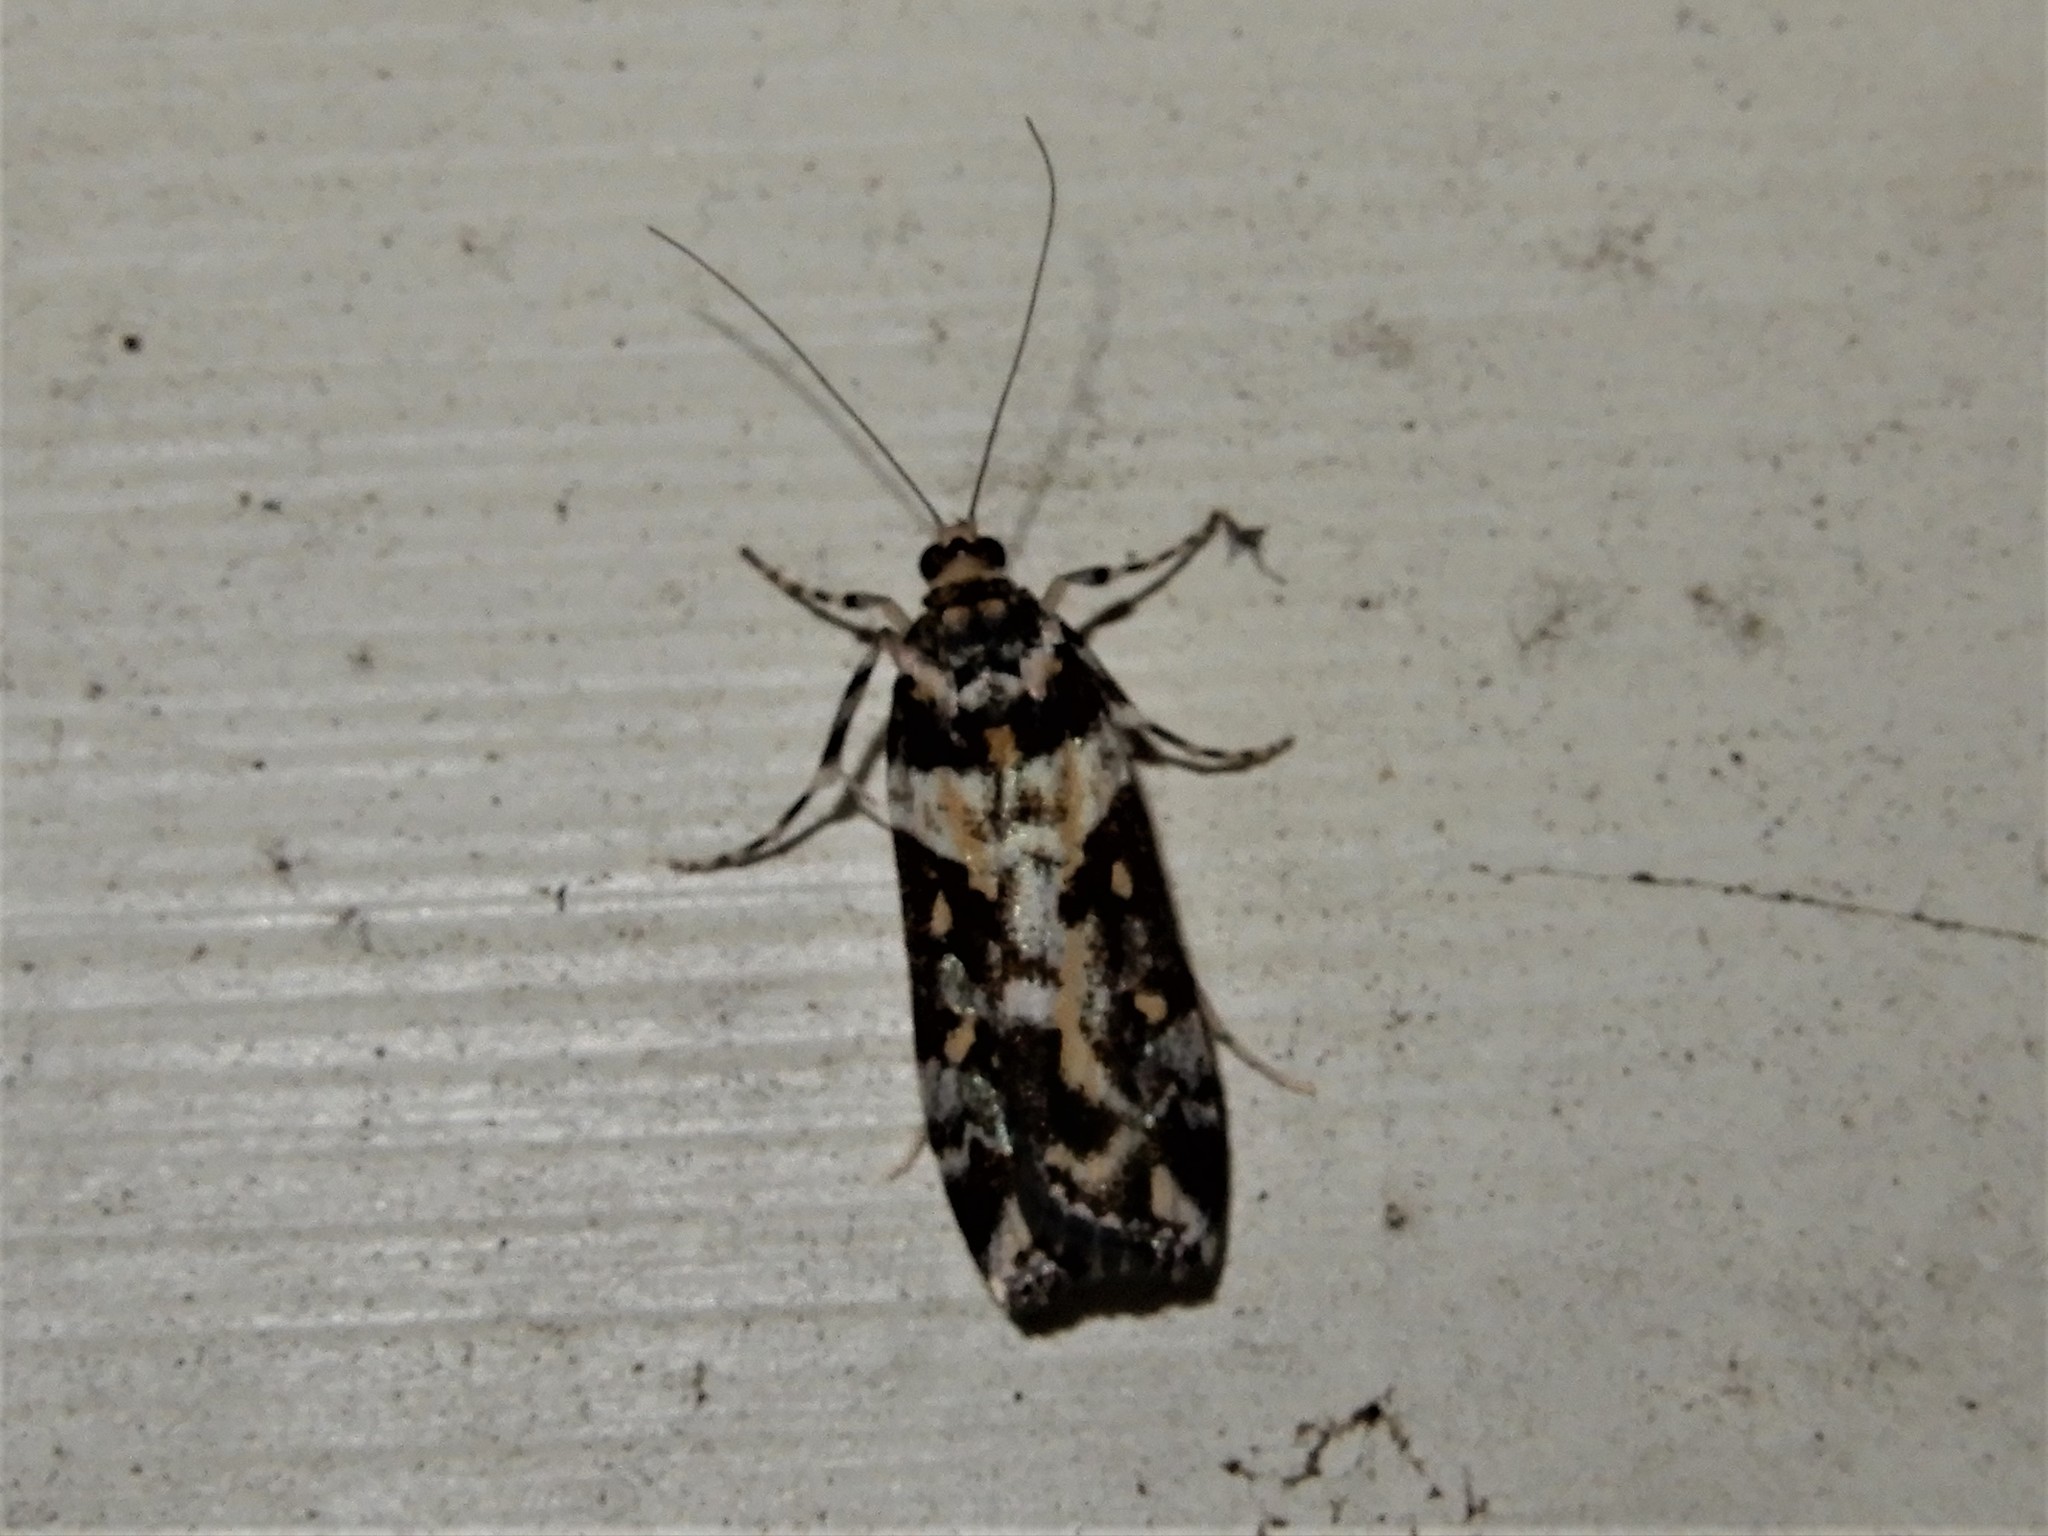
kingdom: Animalia
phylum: Arthropoda
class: Insecta
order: Lepidoptera
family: Crambidae
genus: Eudonia
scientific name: Eudonia diphtheralis
